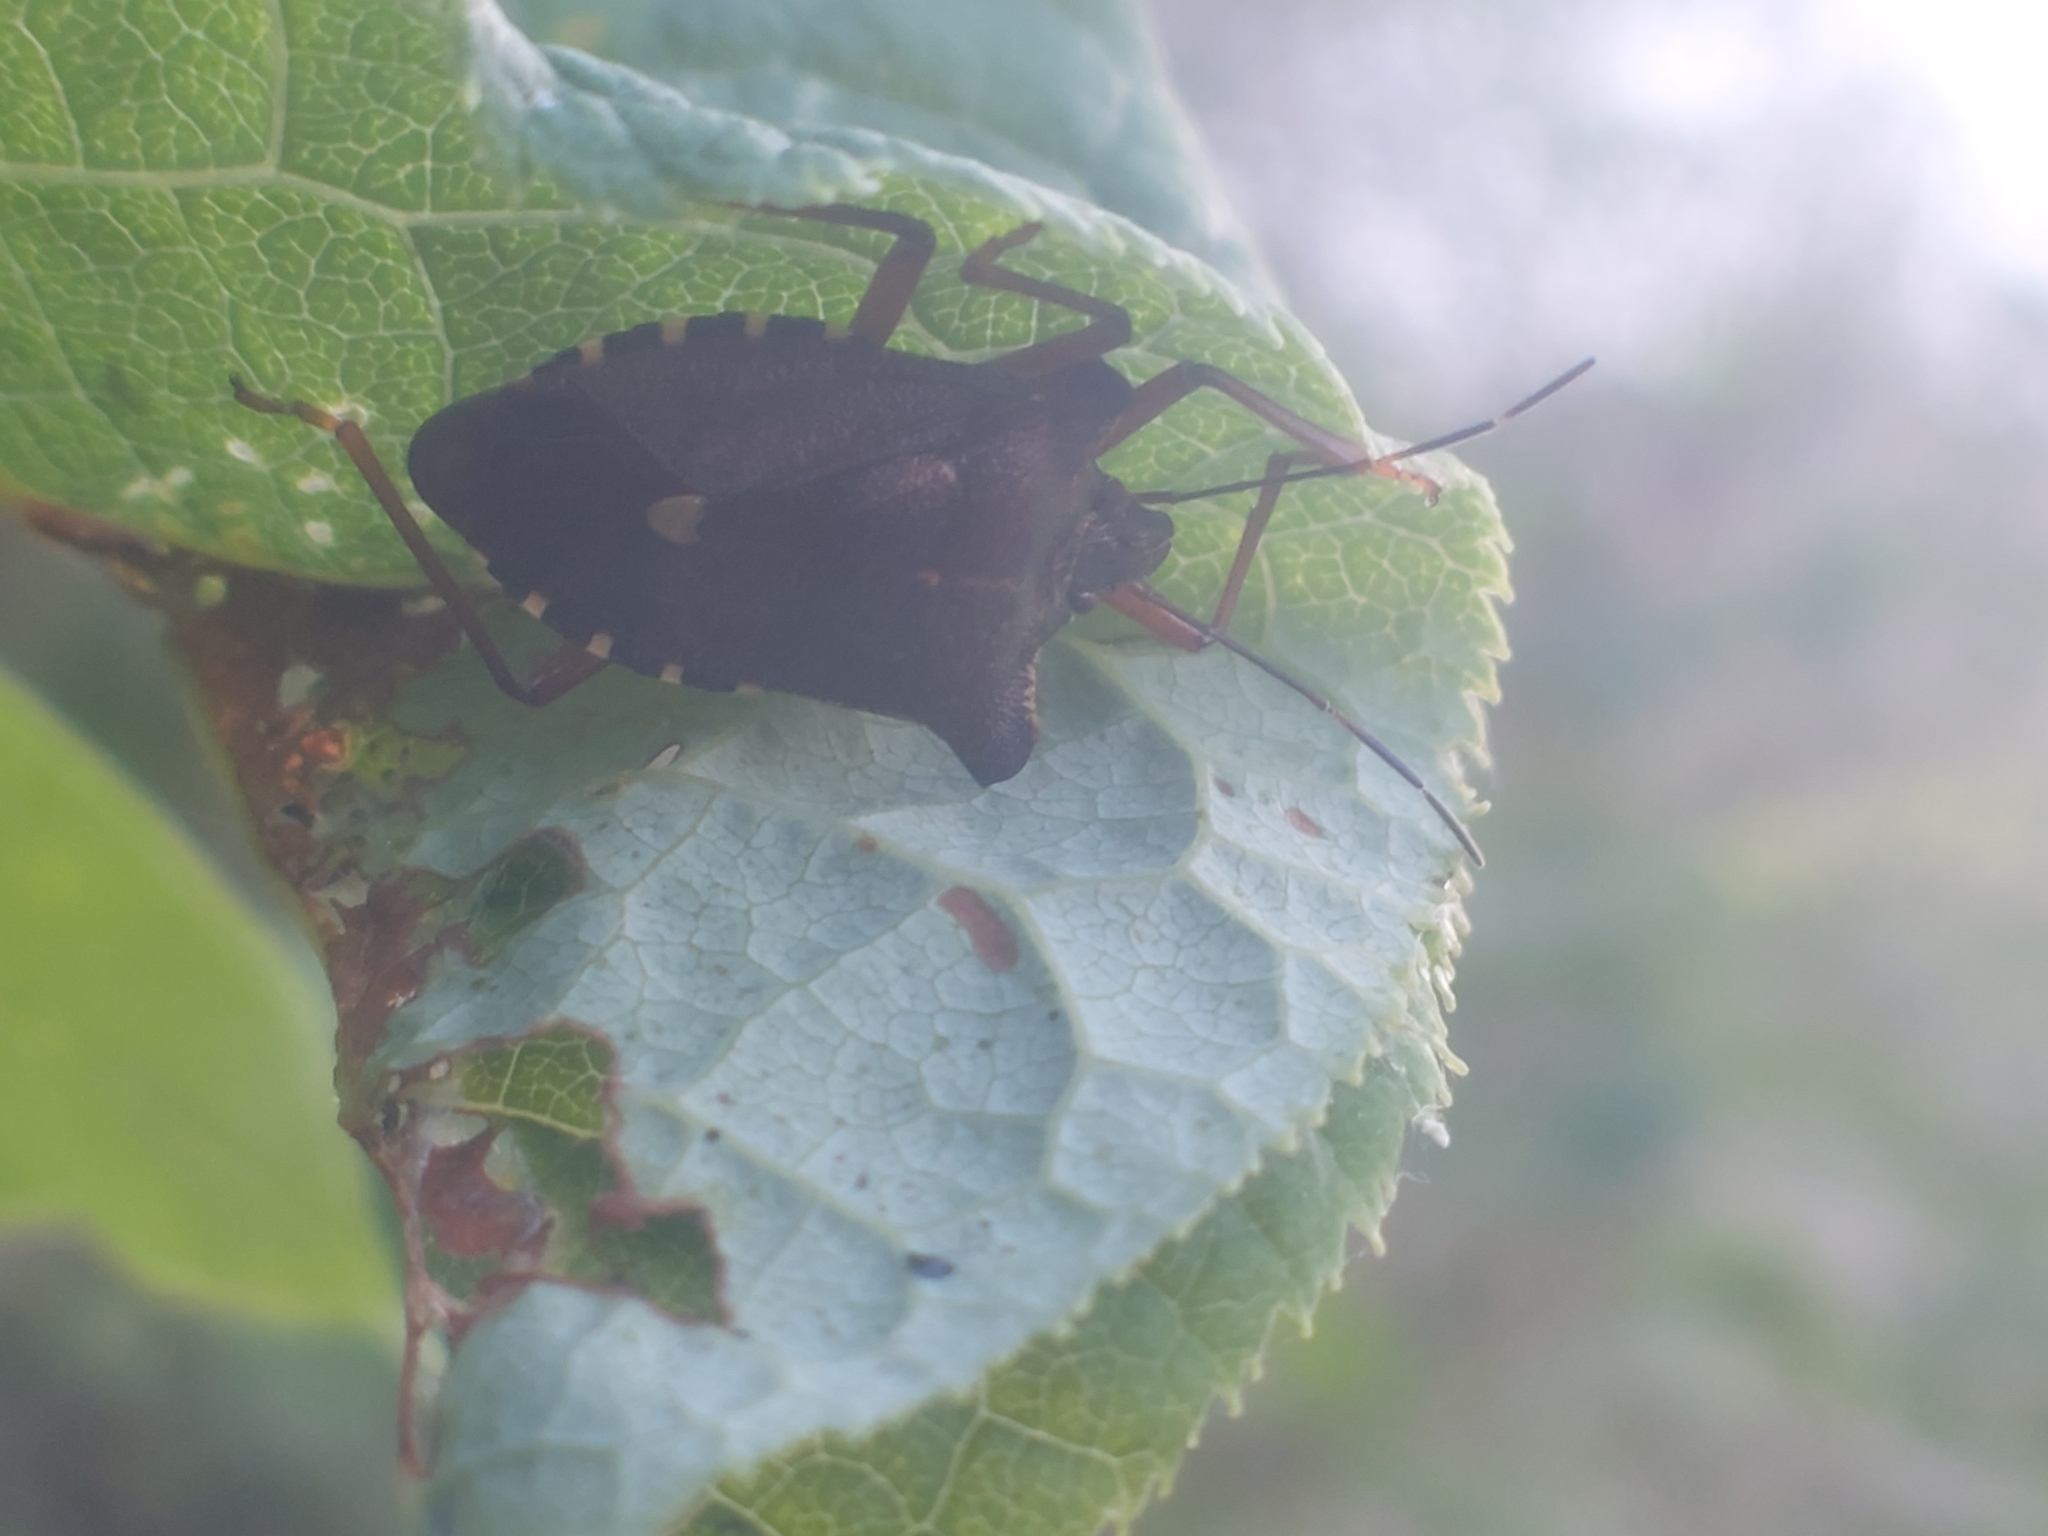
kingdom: Animalia
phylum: Arthropoda
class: Insecta
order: Hemiptera
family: Pentatomidae
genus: Pentatoma
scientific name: Pentatoma rufipes
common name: Forest bug
